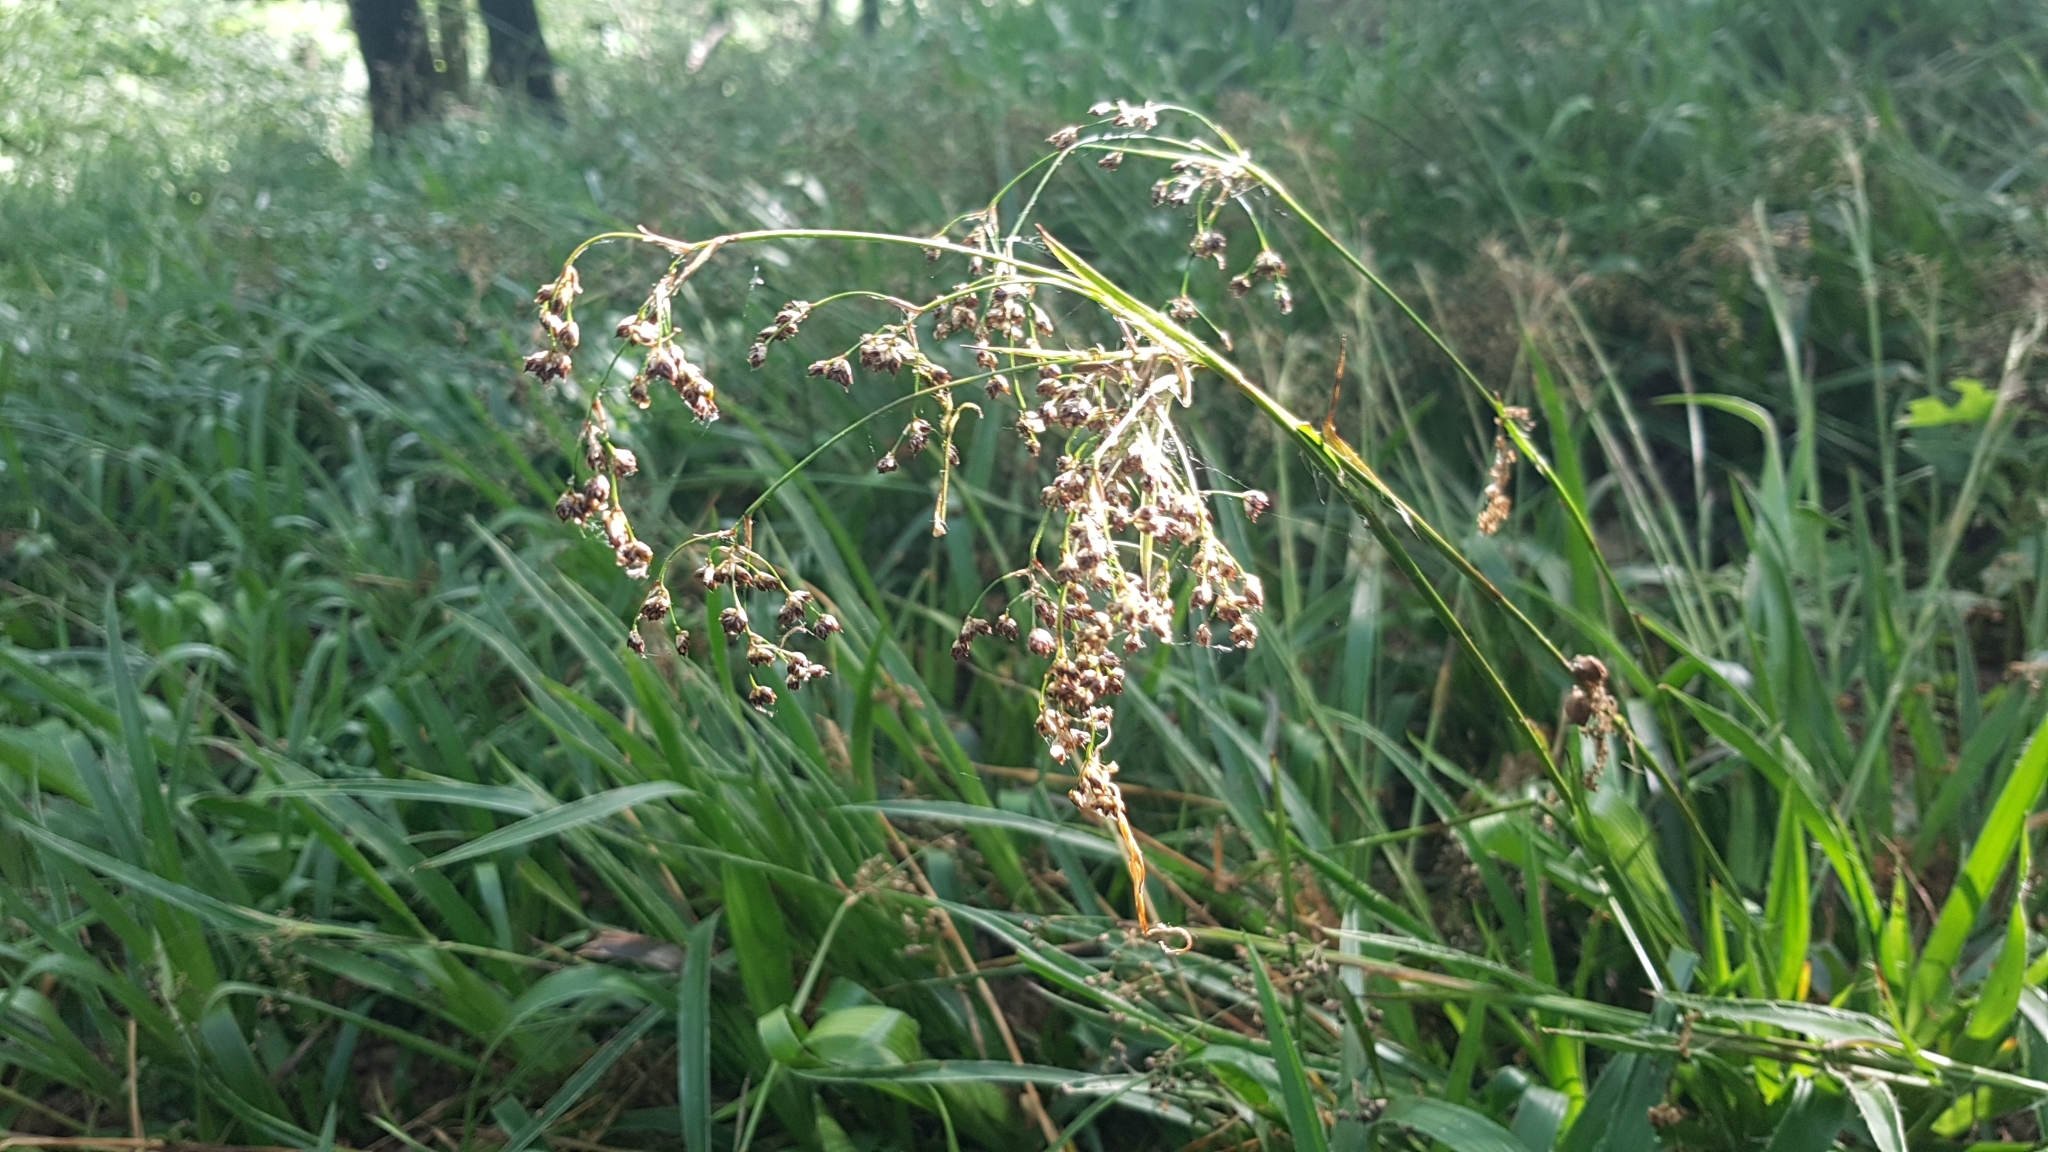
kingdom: Plantae
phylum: Tracheophyta
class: Liliopsida
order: Poales
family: Juncaceae
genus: Luzula
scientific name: Luzula sylvatica
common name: Great wood-rush
